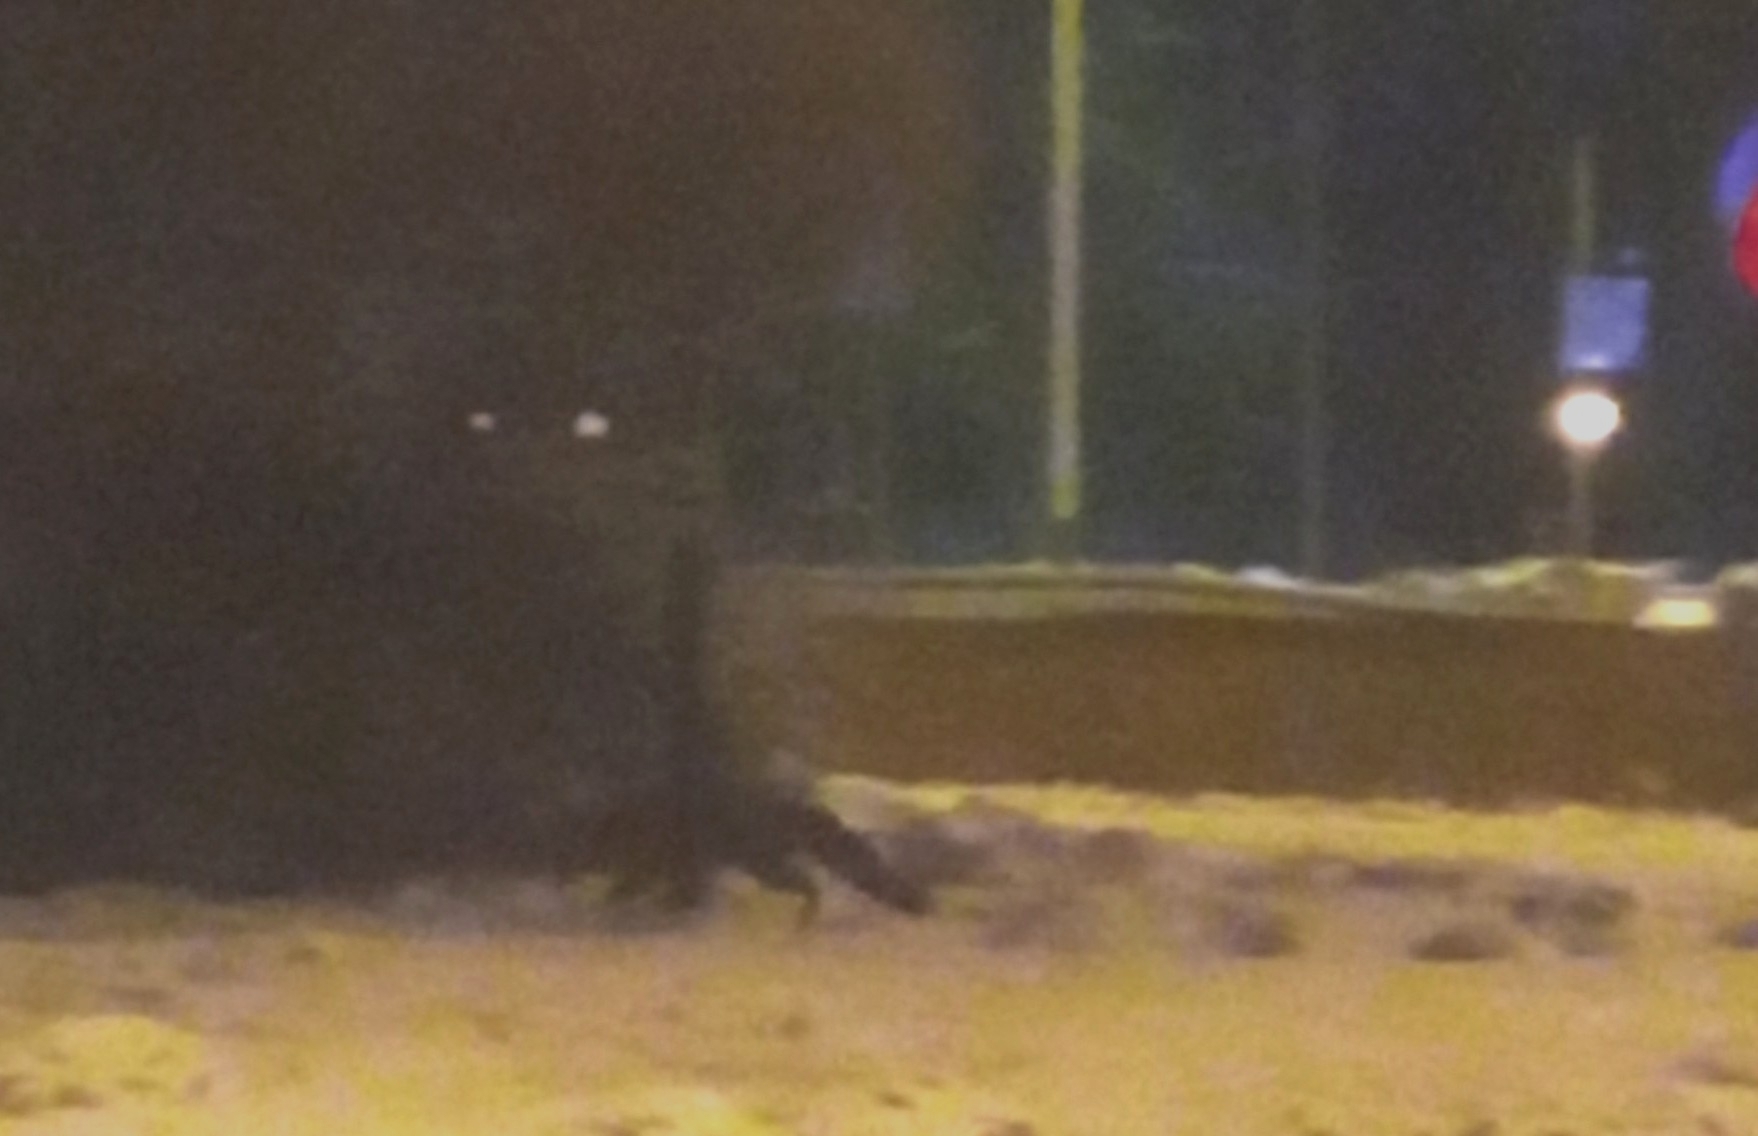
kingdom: Animalia
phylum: Chordata
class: Mammalia
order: Carnivora
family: Canidae
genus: Vulpes
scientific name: Vulpes vulpes
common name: Red fox
